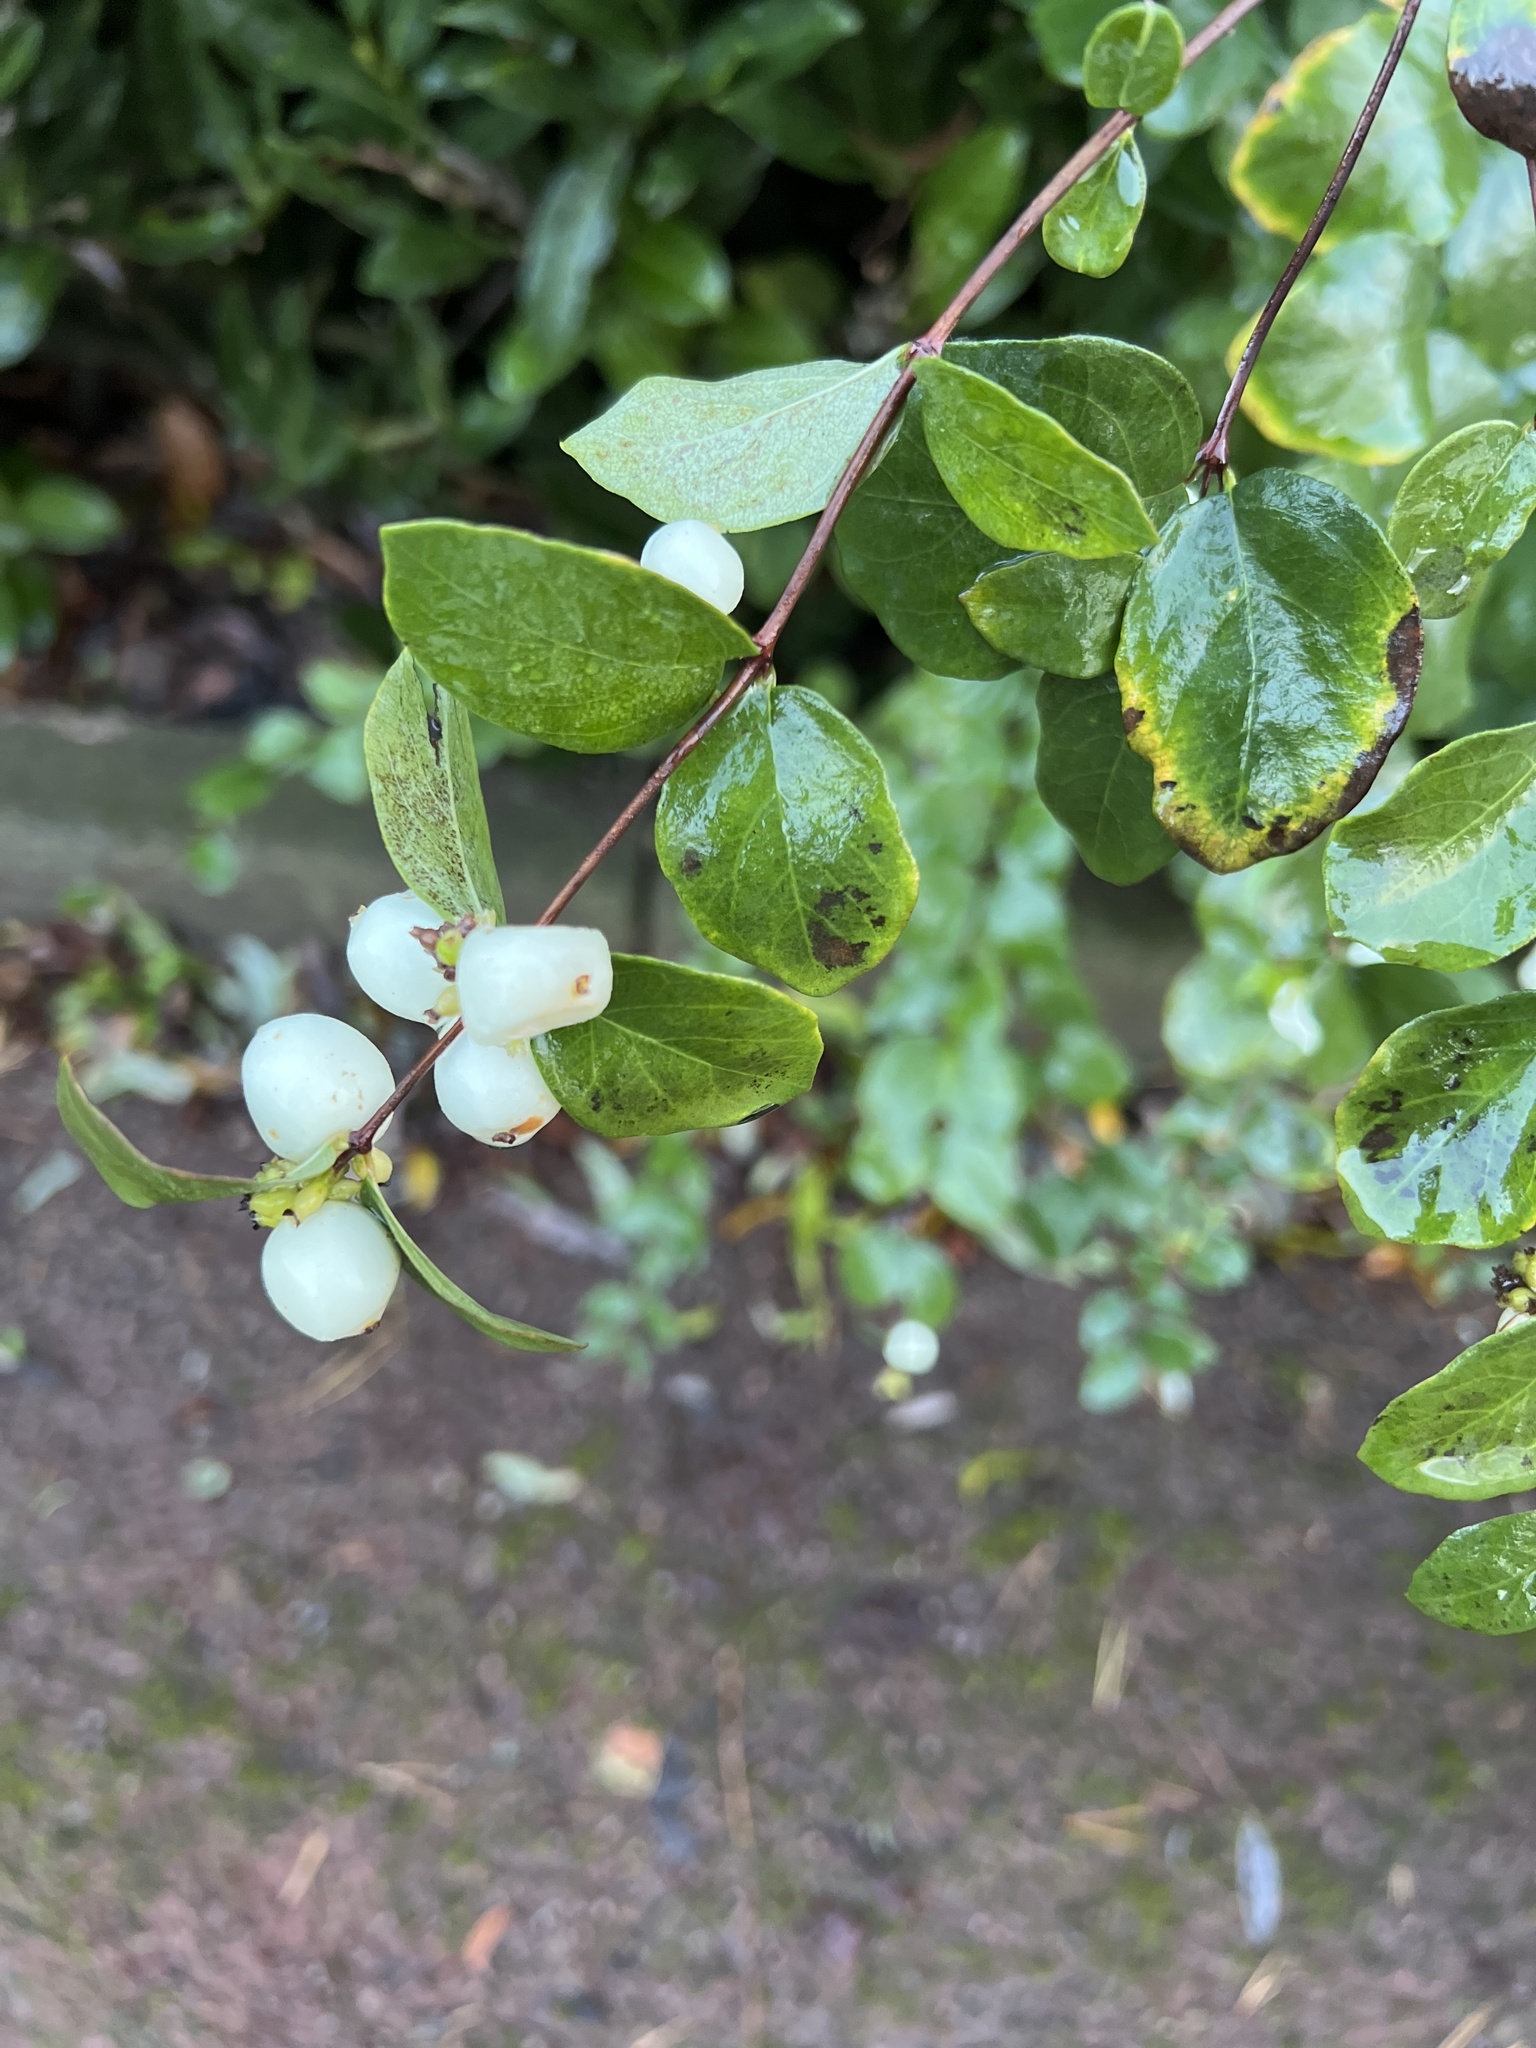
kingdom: Plantae
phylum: Tracheophyta
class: Magnoliopsida
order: Dipsacales
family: Caprifoliaceae
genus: Symphoricarpos
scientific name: Symphoricarpos albus
